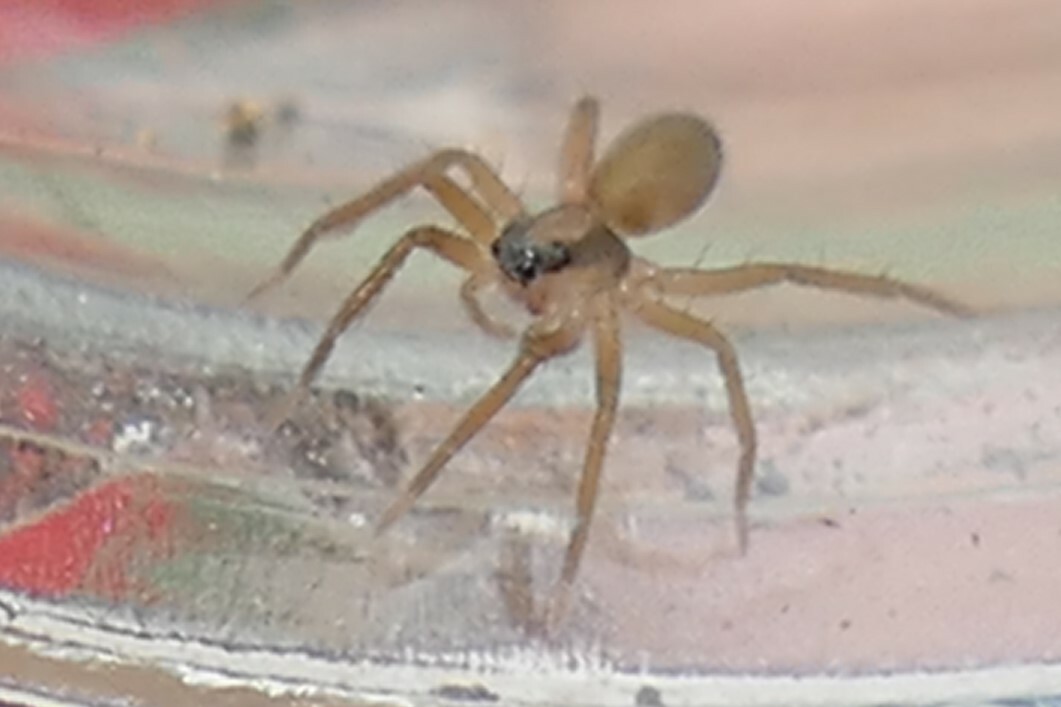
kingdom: Animalia
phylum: Arthropoda
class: Arachnida
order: Araneae
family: Lycosidae
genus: Trabea
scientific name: Trabea paradoxa
